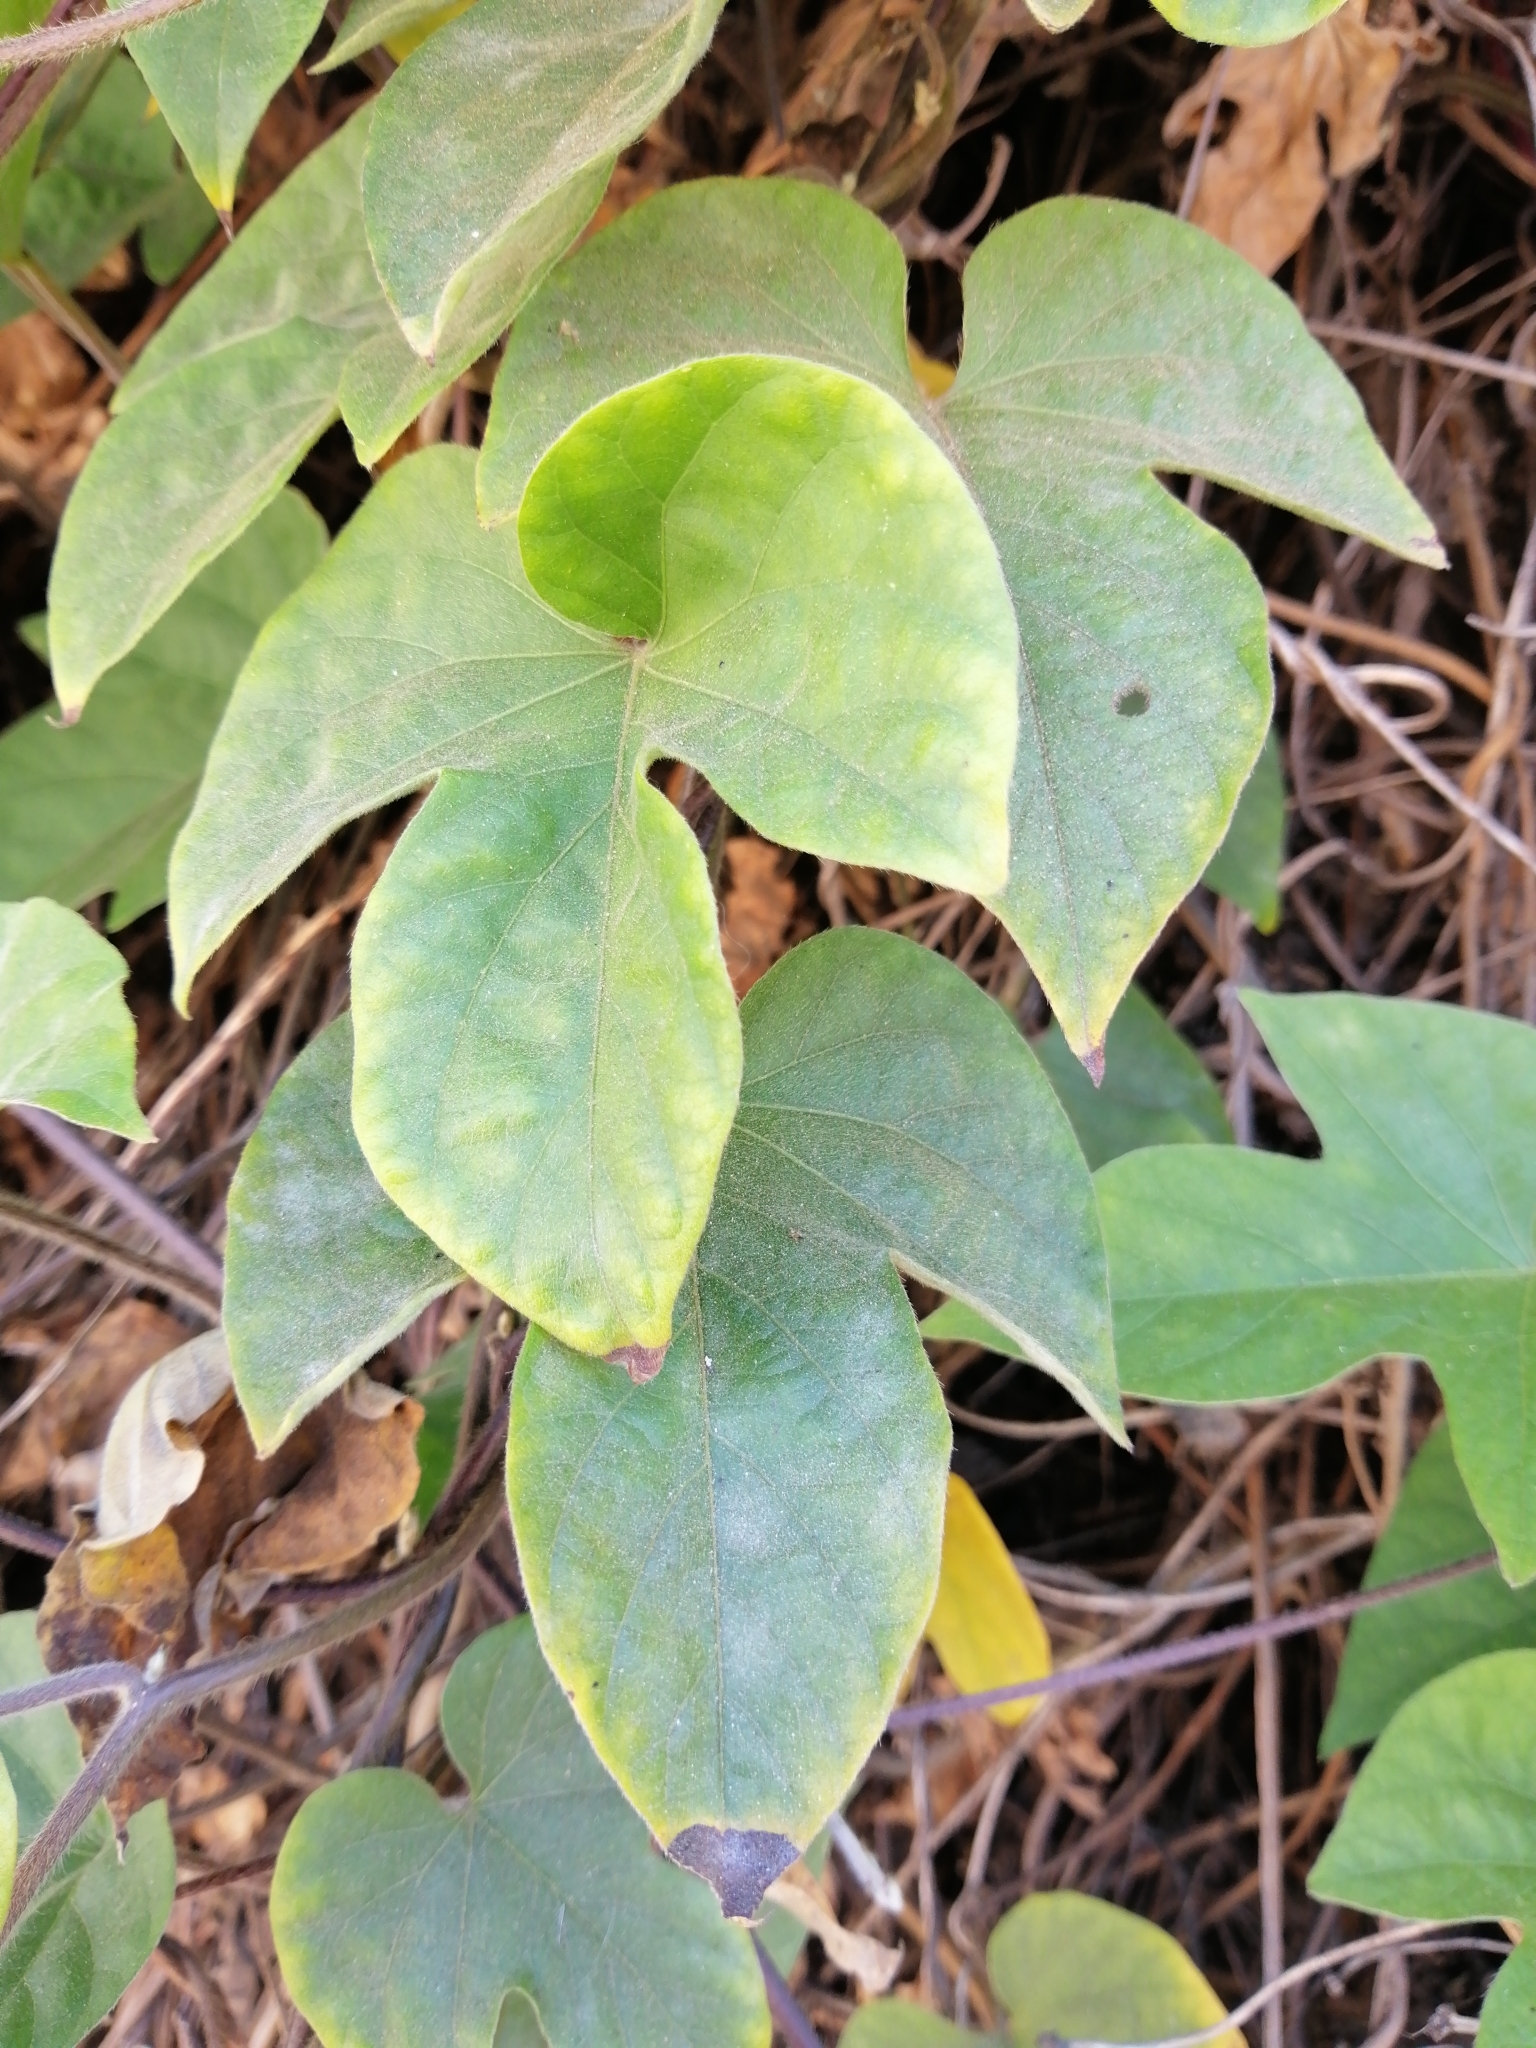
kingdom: Plantae
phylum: Tracheophyta
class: Magnoliopsida
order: Solanales
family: Convolvulaceae
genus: Ipomoea
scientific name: Ipomoea indica
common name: Blue dawnflower
